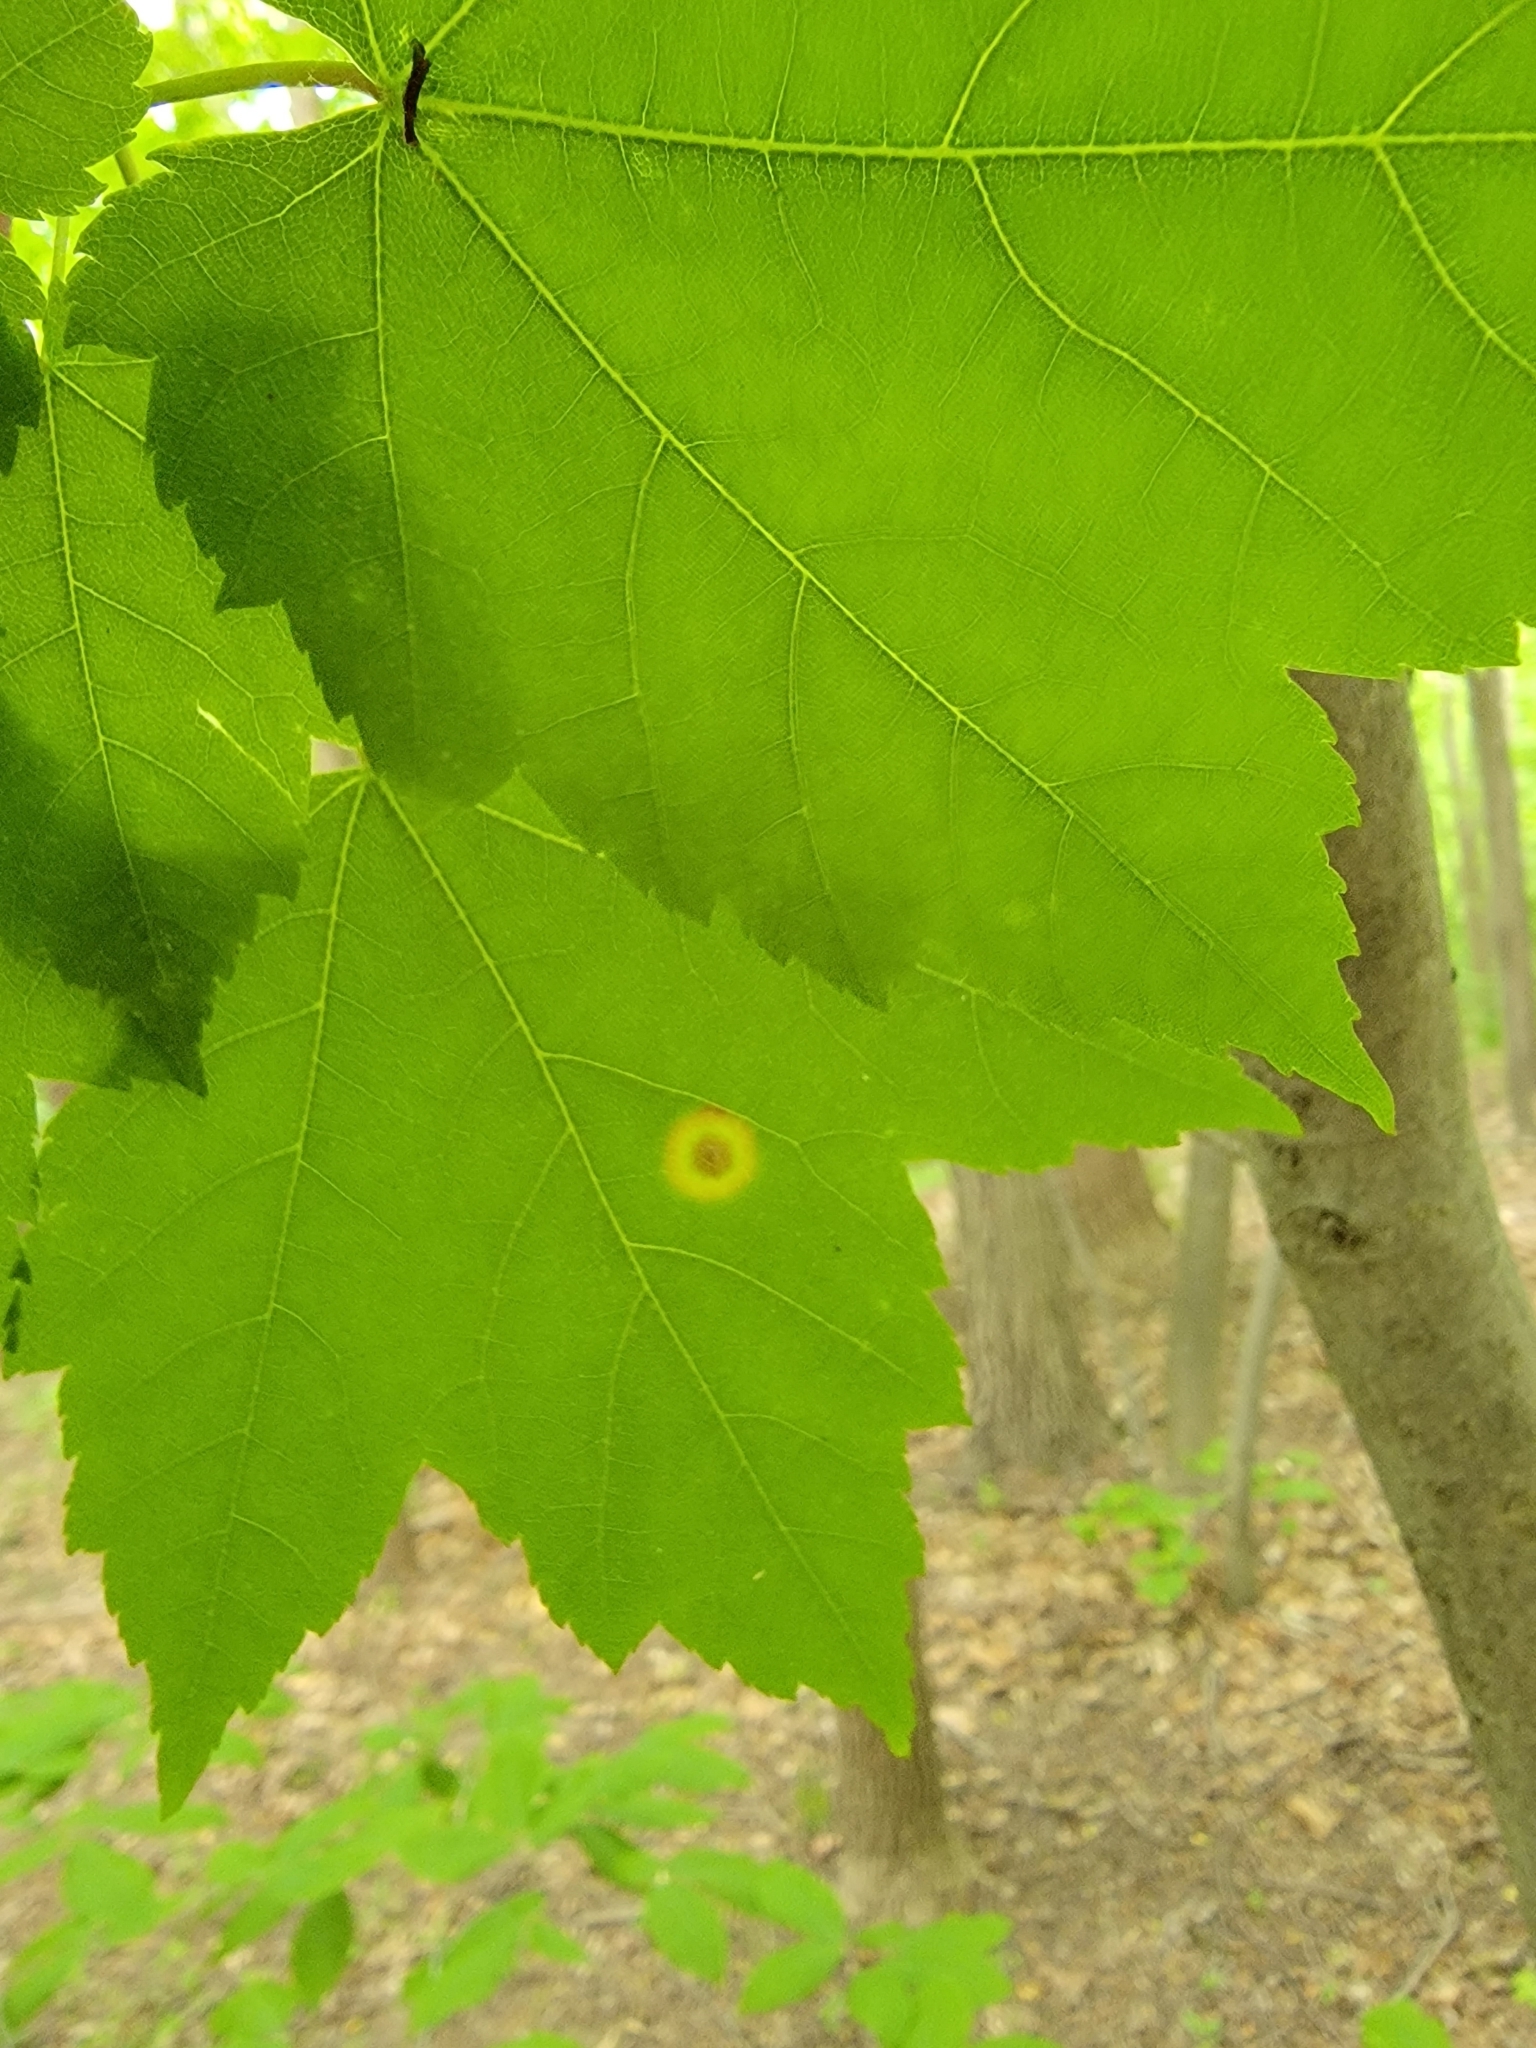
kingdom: Animalia
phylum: Arthropoda
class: Insecta
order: Diptera
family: Cecidomyiidae
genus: Acericecis
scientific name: Acericecis ocellaris
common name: Ocellate gall midge
